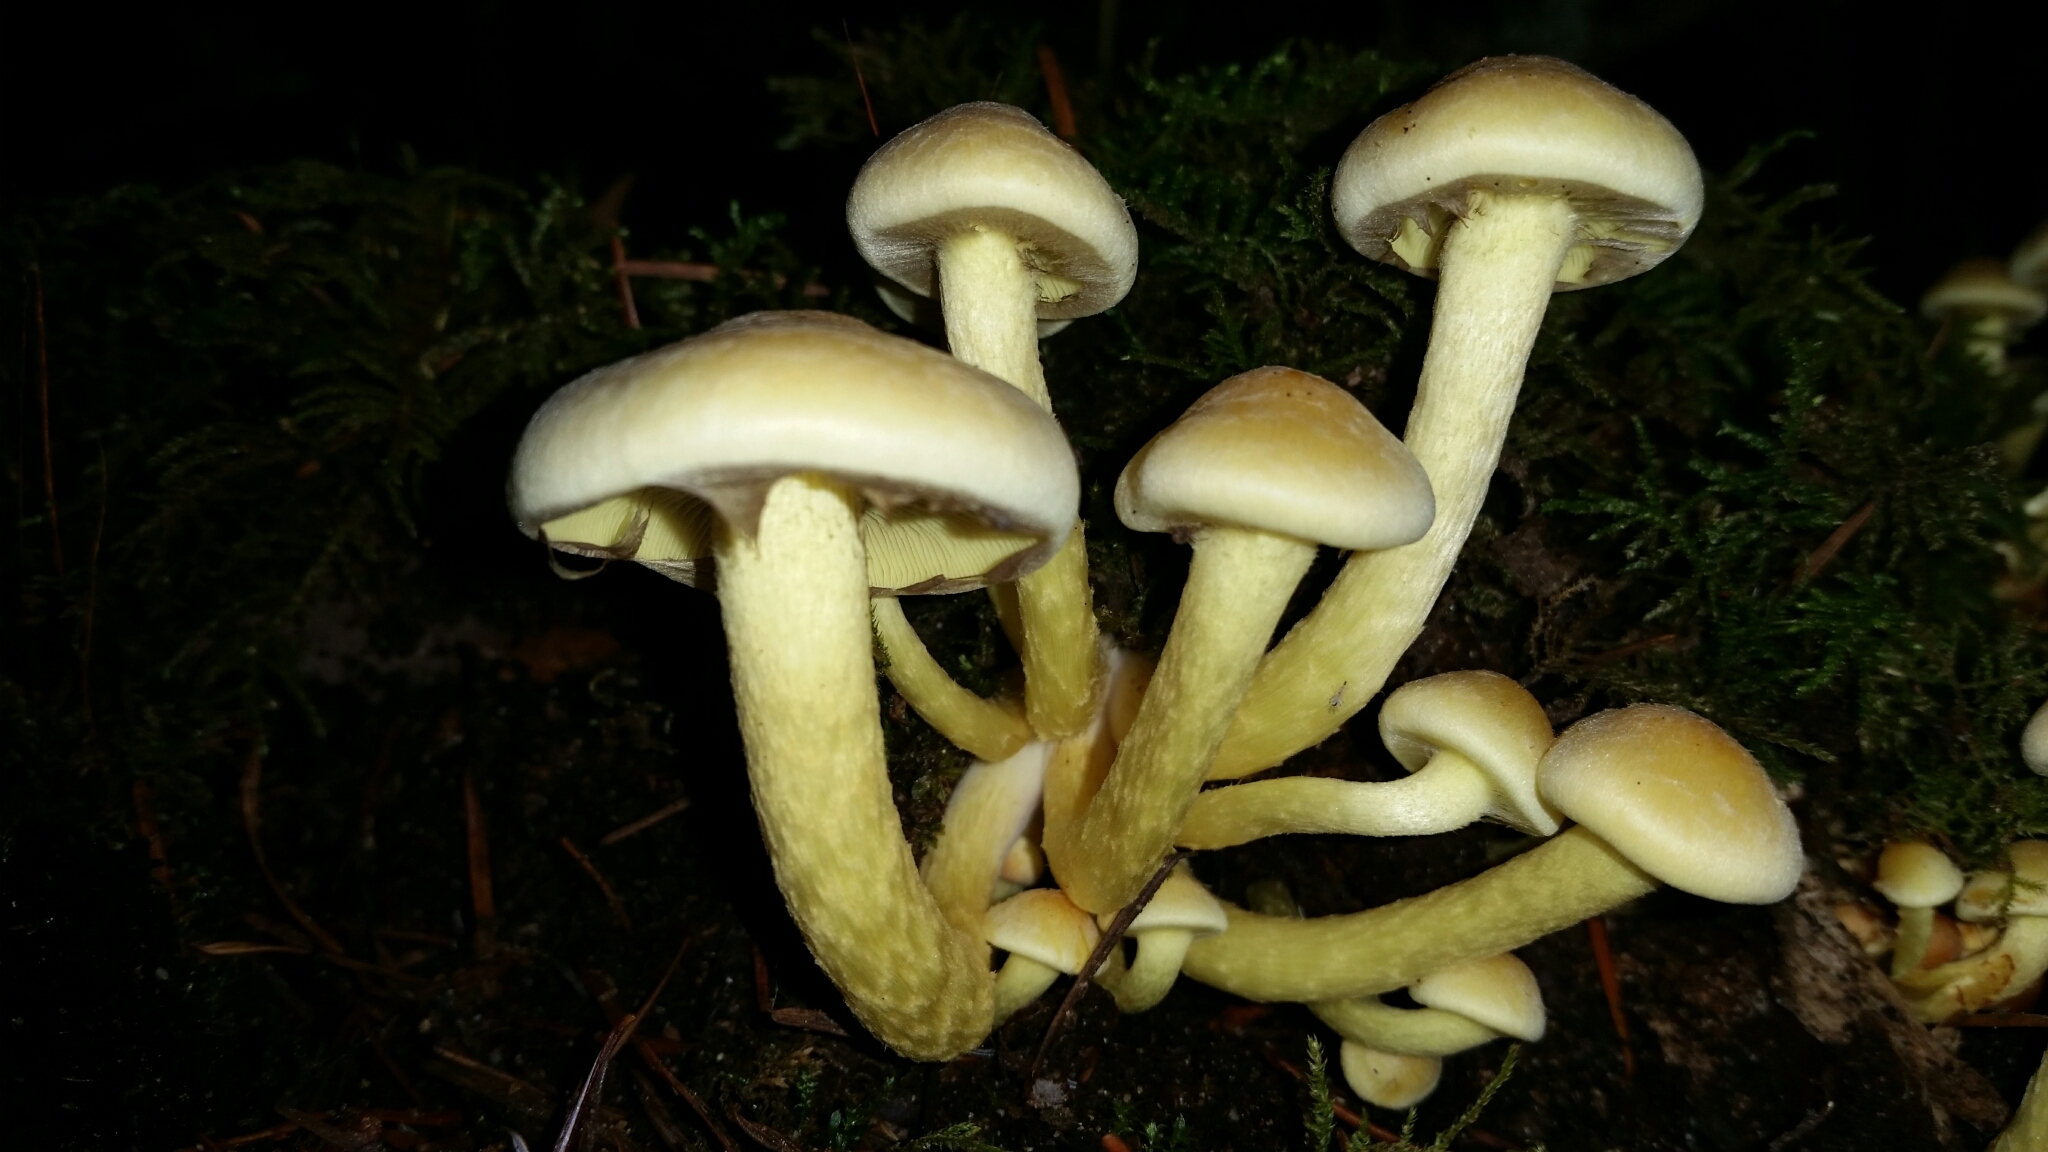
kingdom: Fungi
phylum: Basidiomycota
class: Agaricomycetes
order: Agaricales
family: Strophariaceae
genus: Hypholoma
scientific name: Hypholoma fasciculare
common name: Sulphur tuft
